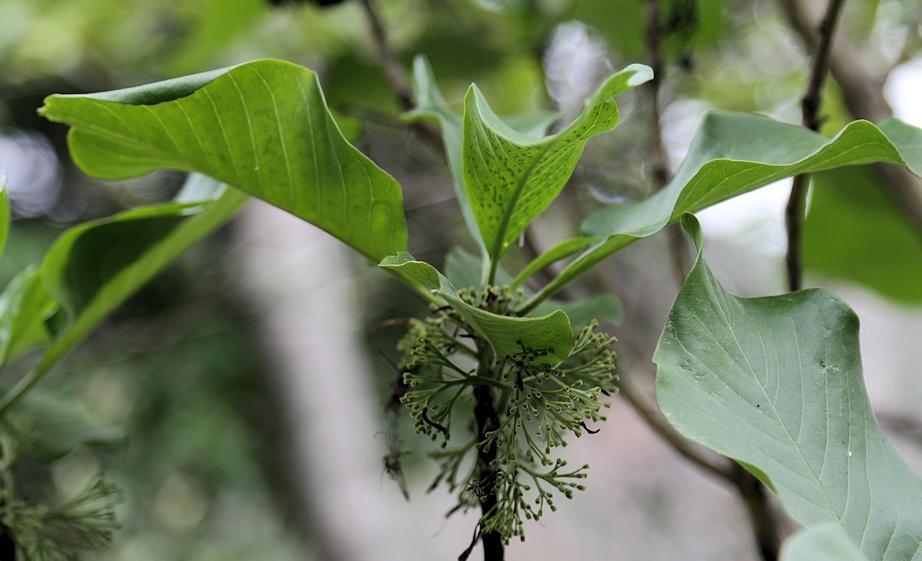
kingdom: Plantae
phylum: Tracheophyta
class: Magnoliopsida
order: Gentianales
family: Rubiaceae
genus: Pavetta
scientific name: Pavetta eylesii
